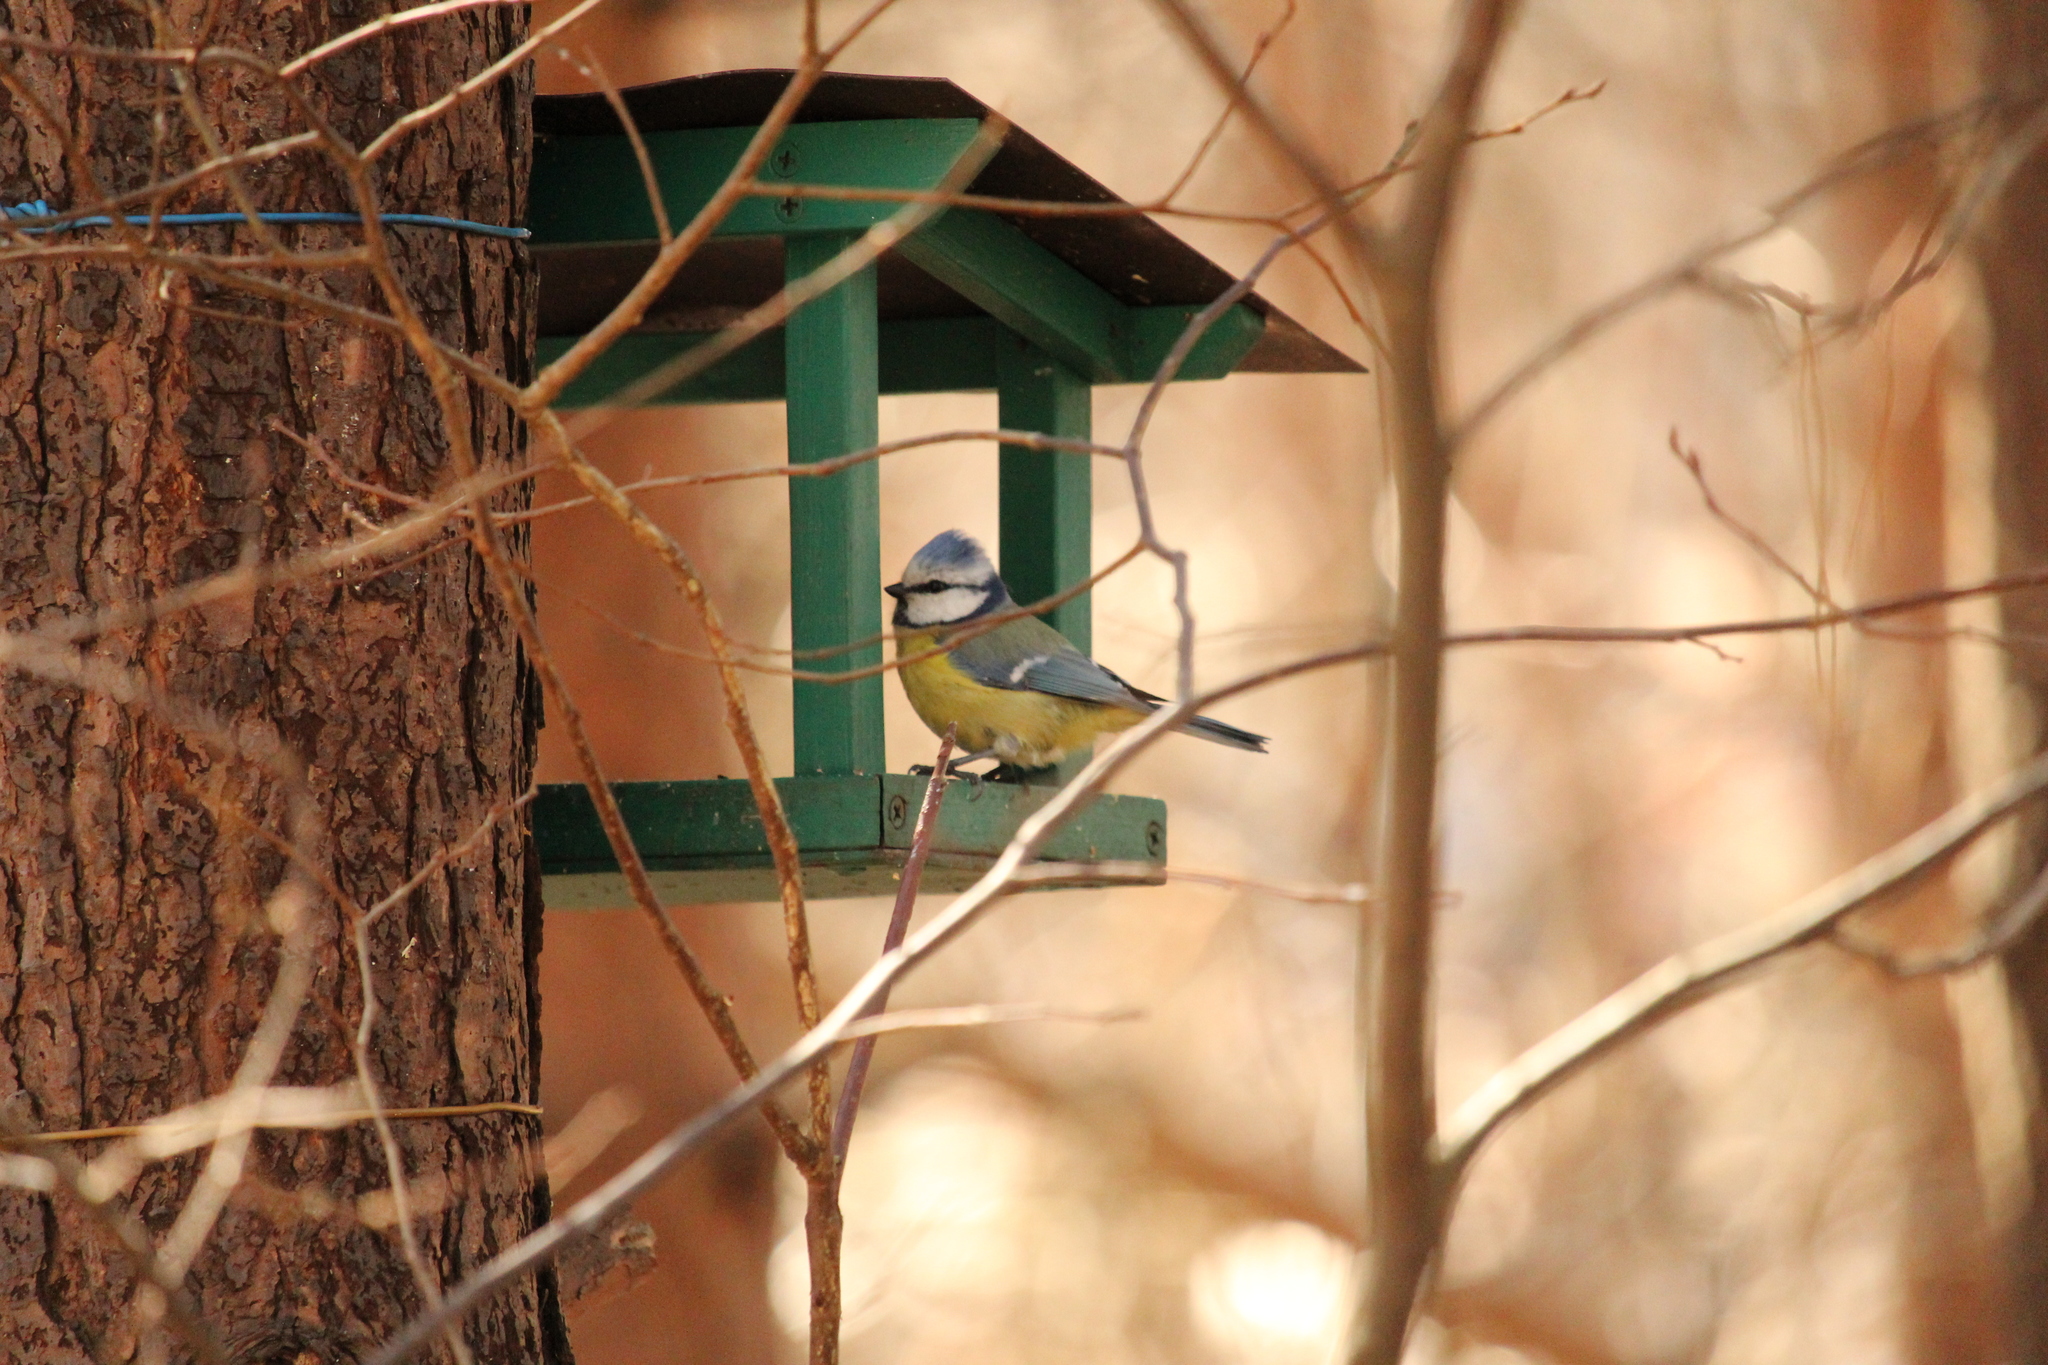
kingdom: Animalia
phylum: Chordata
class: Aves
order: Passeriformes
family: Paridae
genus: Cyanistes
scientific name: Cyanistes caeruleus
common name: Eurasian blue tit
